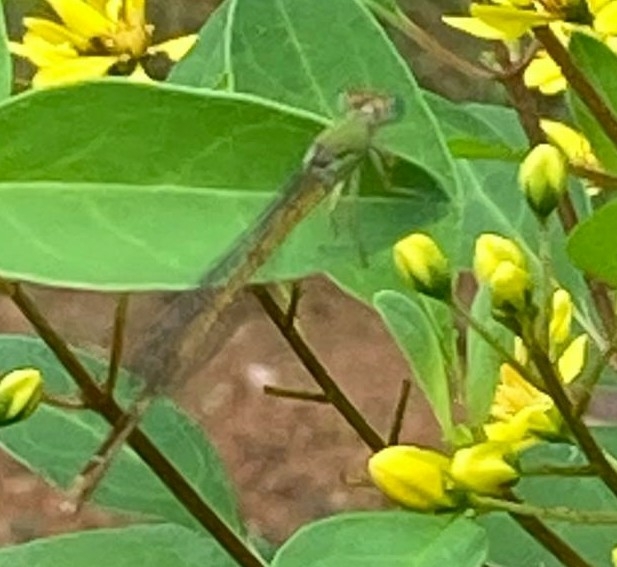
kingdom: Animalia
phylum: Arthropoda
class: Insecta
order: Odonata
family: Coenagrionidae
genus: Ceriagrion
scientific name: Ceriagrion coromandelianum
